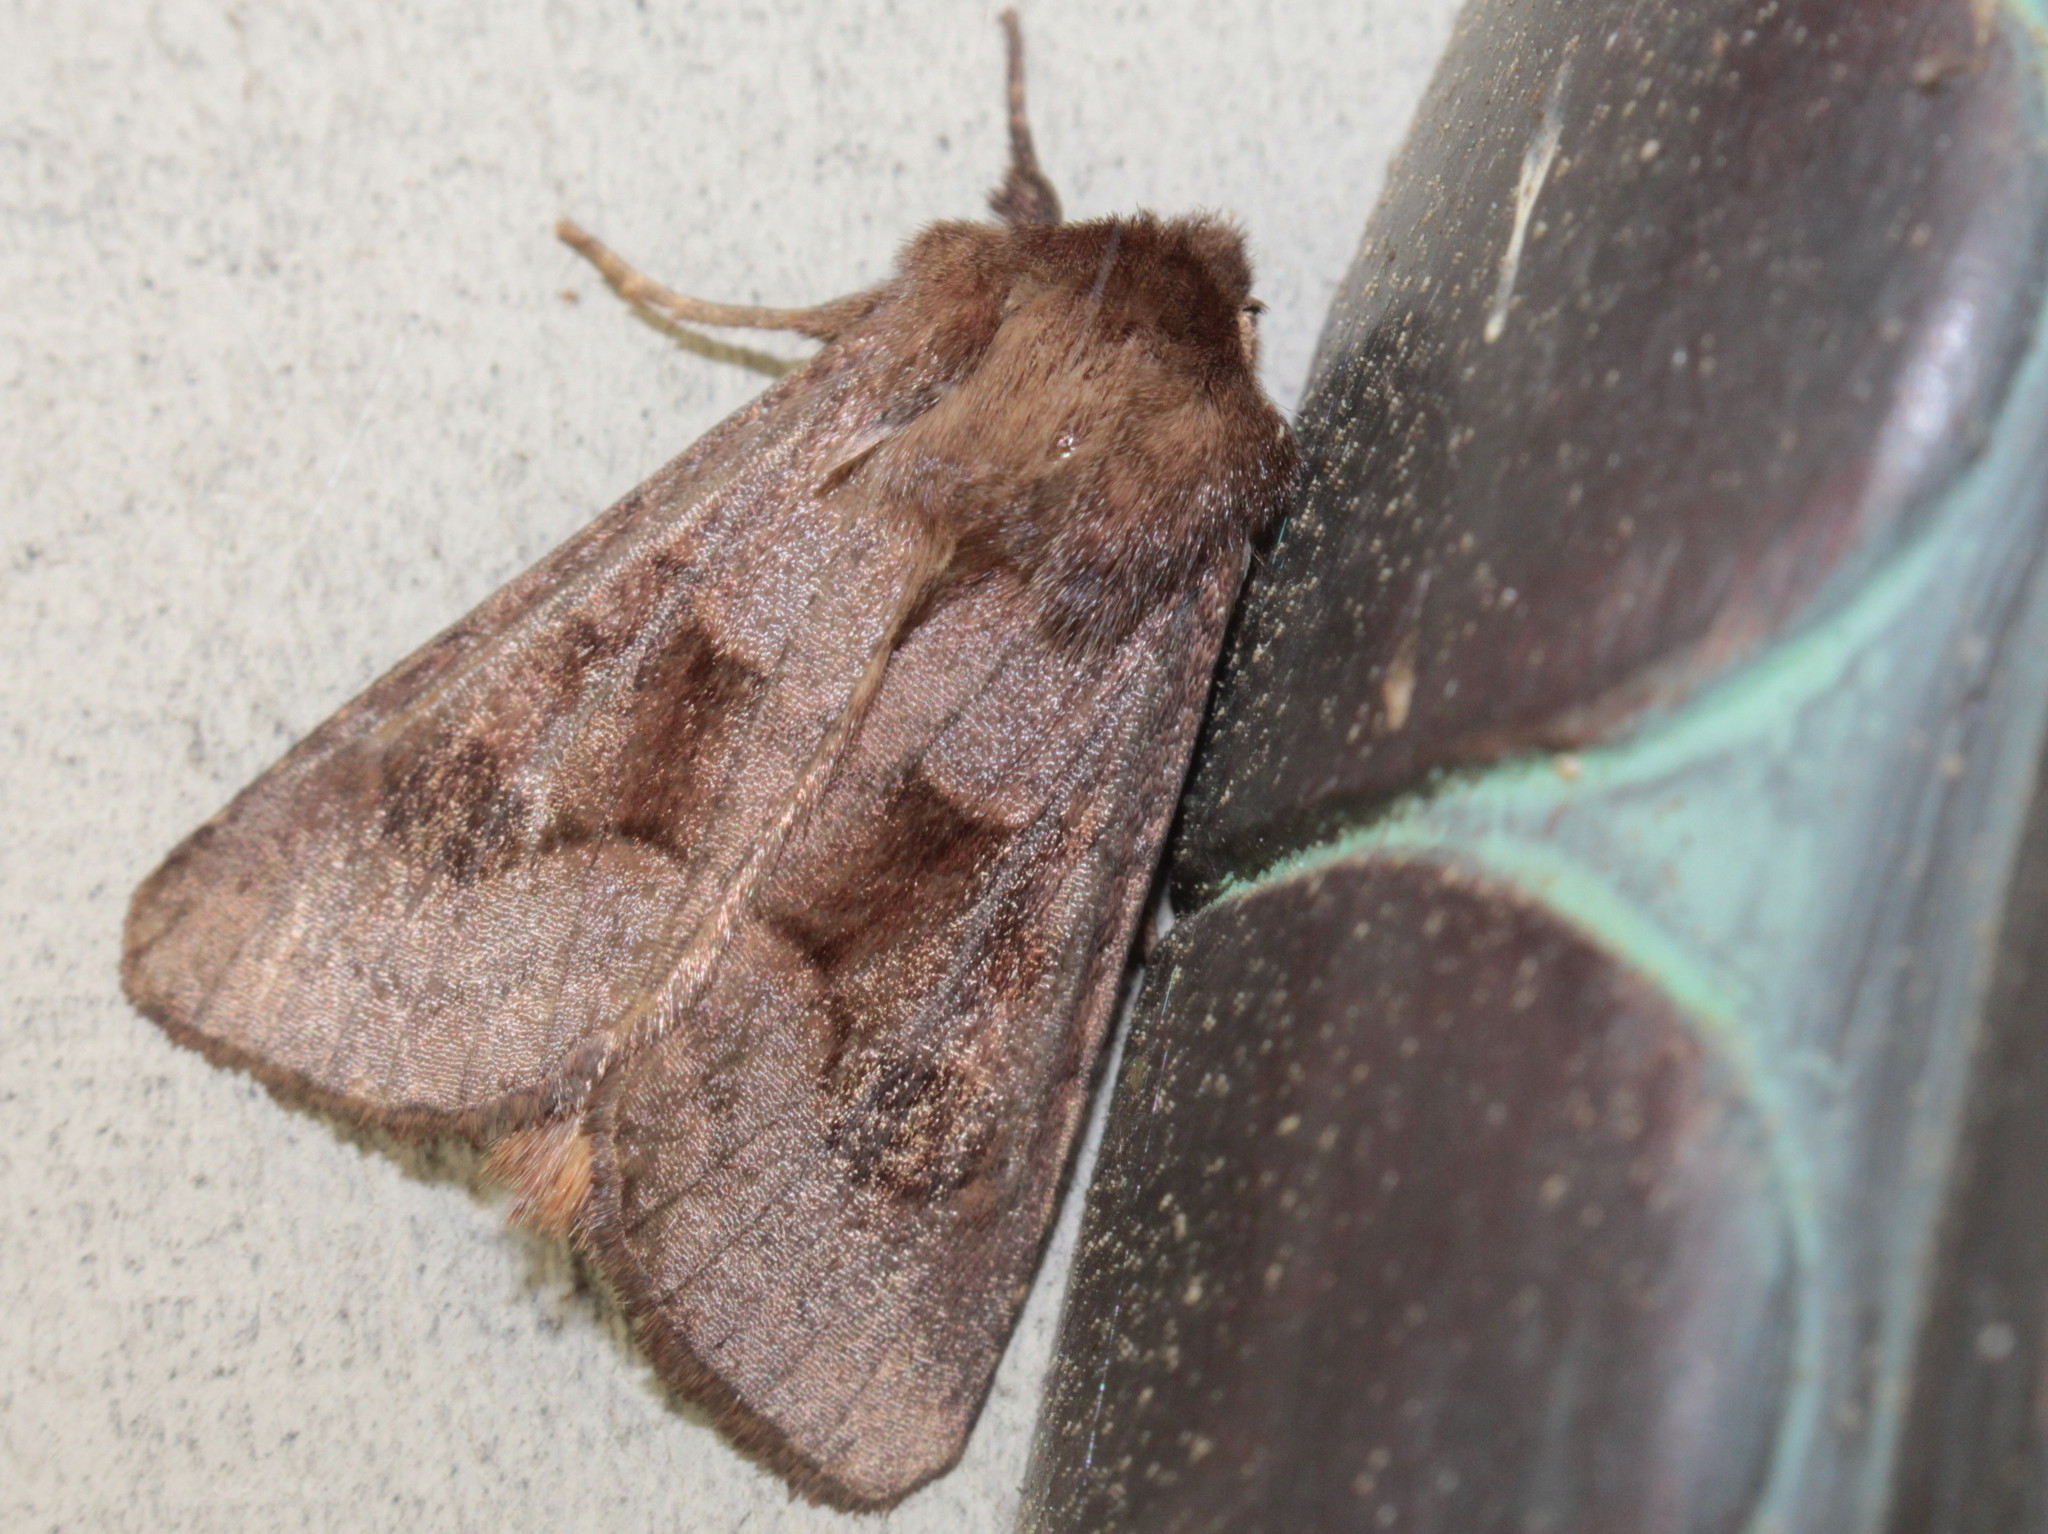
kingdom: Animalia
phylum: Arthropoda
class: Insecta
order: Lepidoptera
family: Noctuidae
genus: Nephelodes
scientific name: Nephelodes minians
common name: Bronzed cutworm
